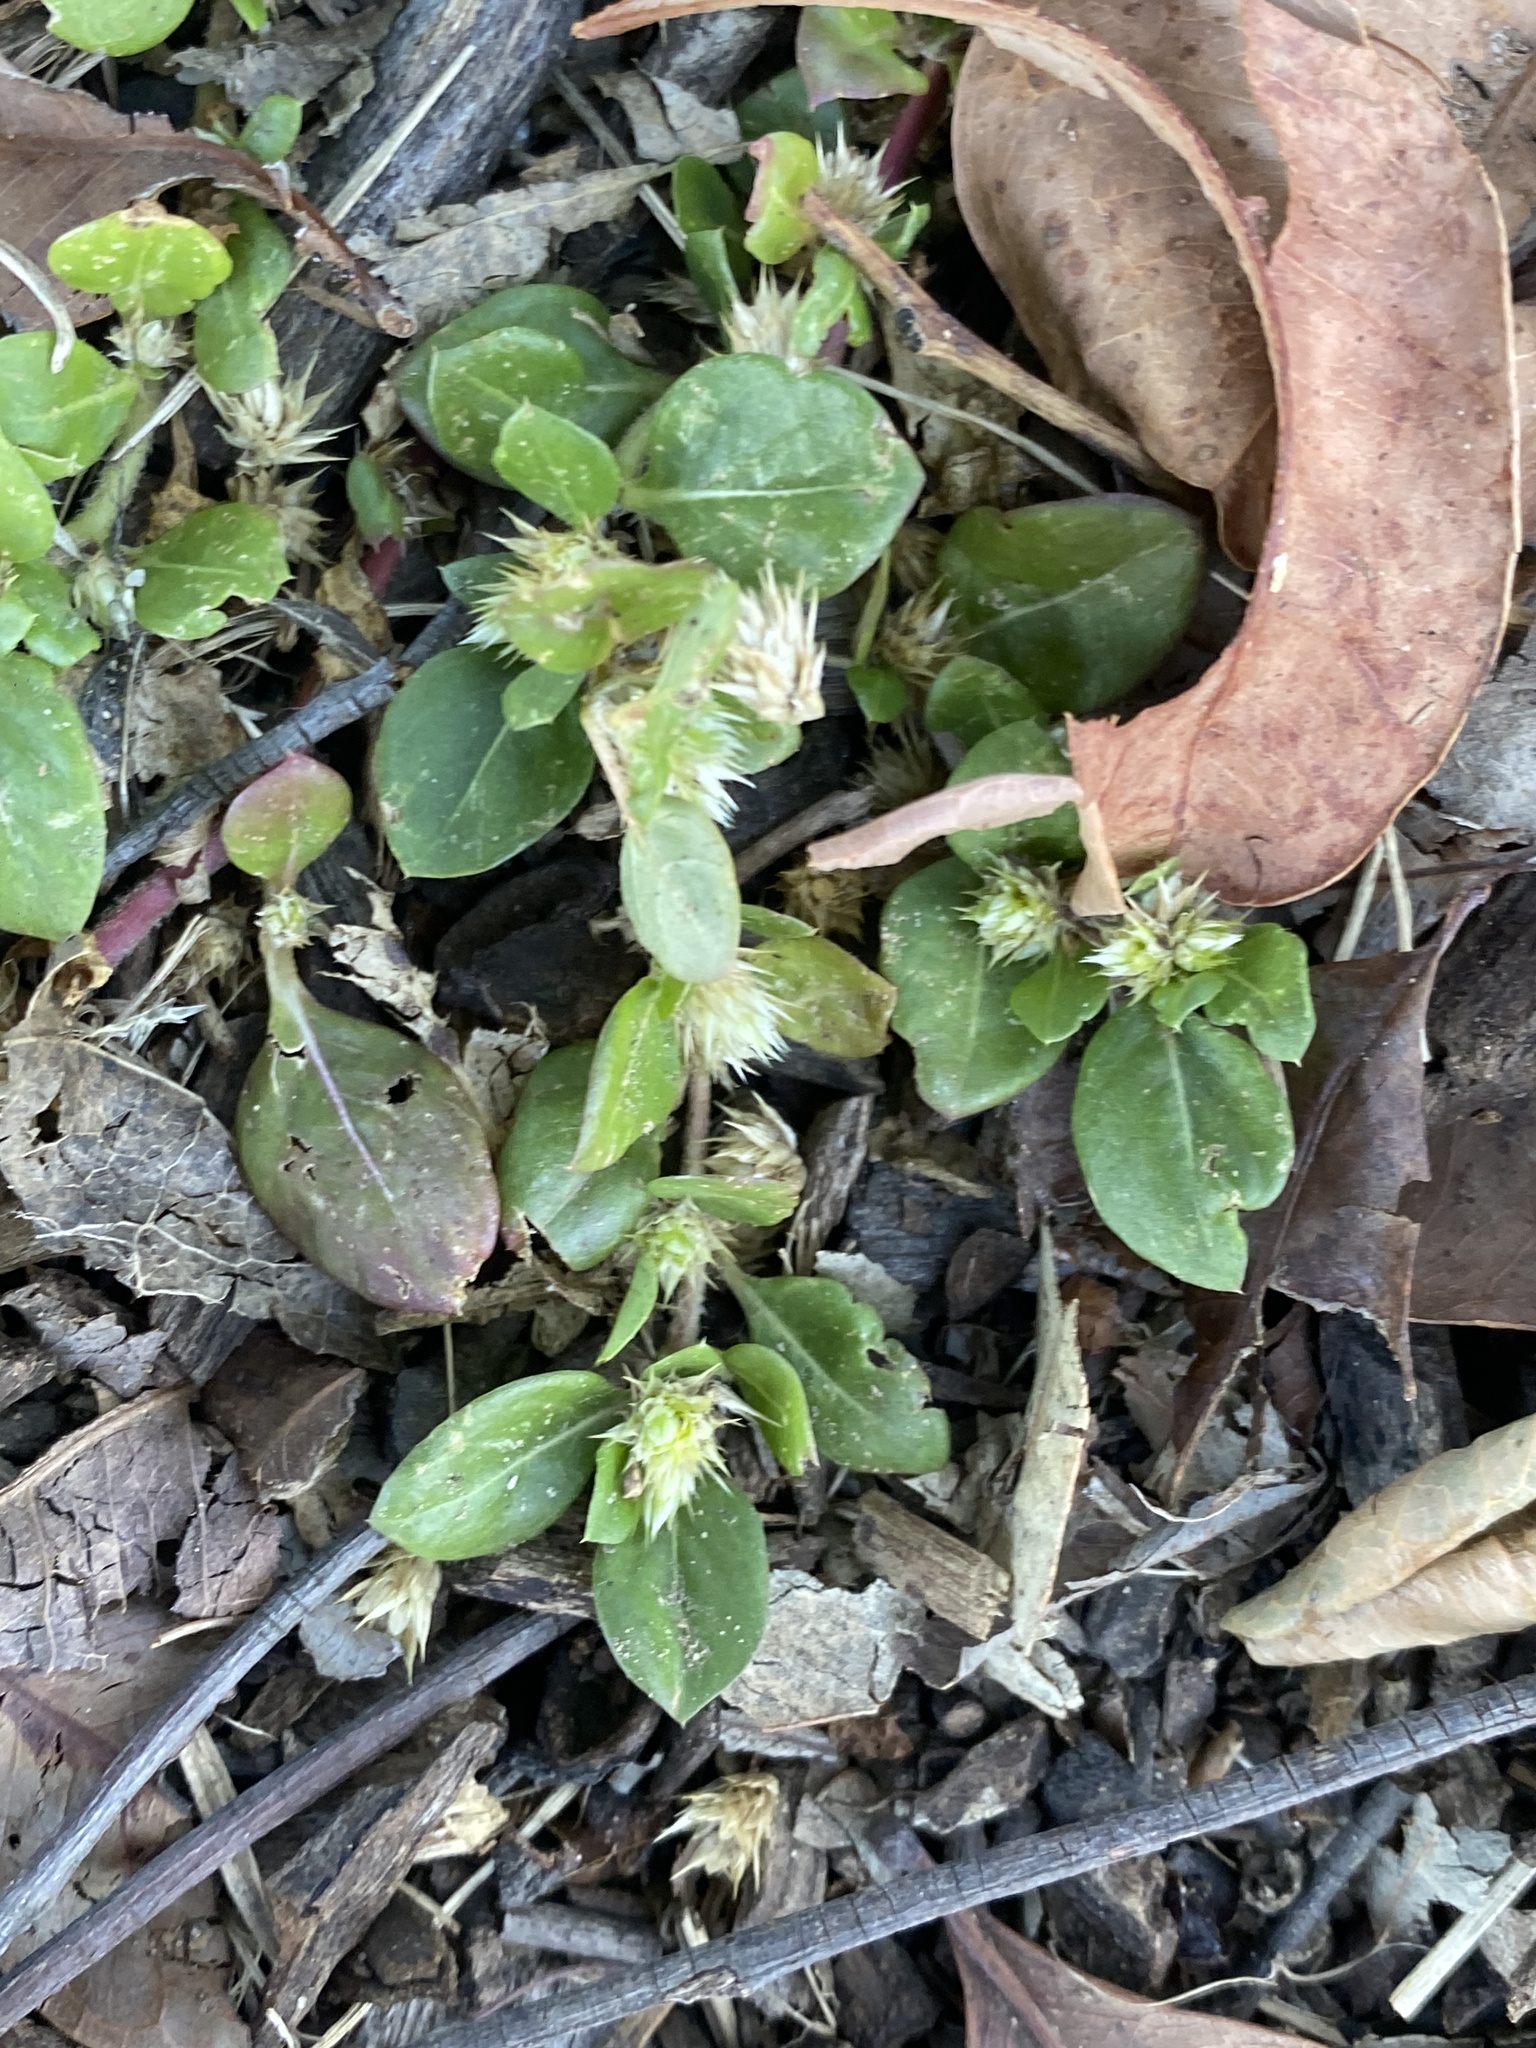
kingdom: Plantae
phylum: Tracheophyta
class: Magnoliopsida
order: Caryophyllales
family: Amaranthaceae
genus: Alternanthera
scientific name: Alternanthera pungens
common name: Khakiweed
